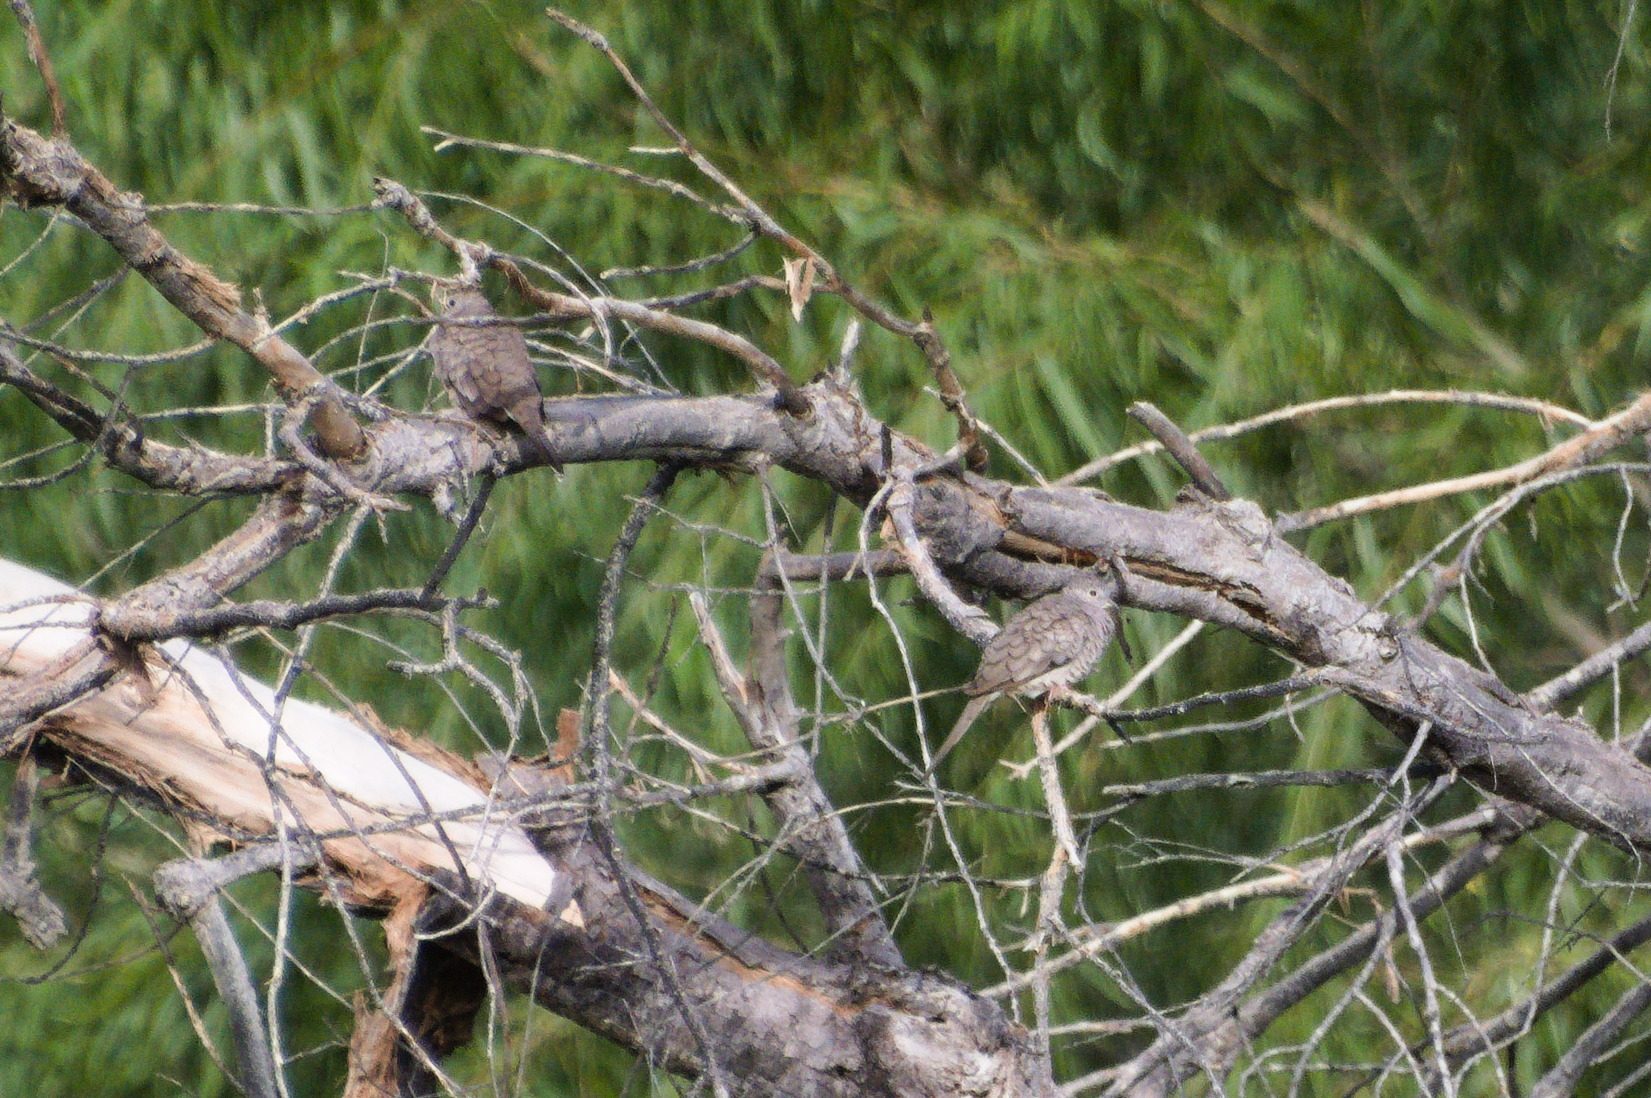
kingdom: Animalia
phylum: Chordata
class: Aves
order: Columbiformes
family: Columbidae
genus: Columbina
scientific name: Columbina inca
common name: Inca dove
